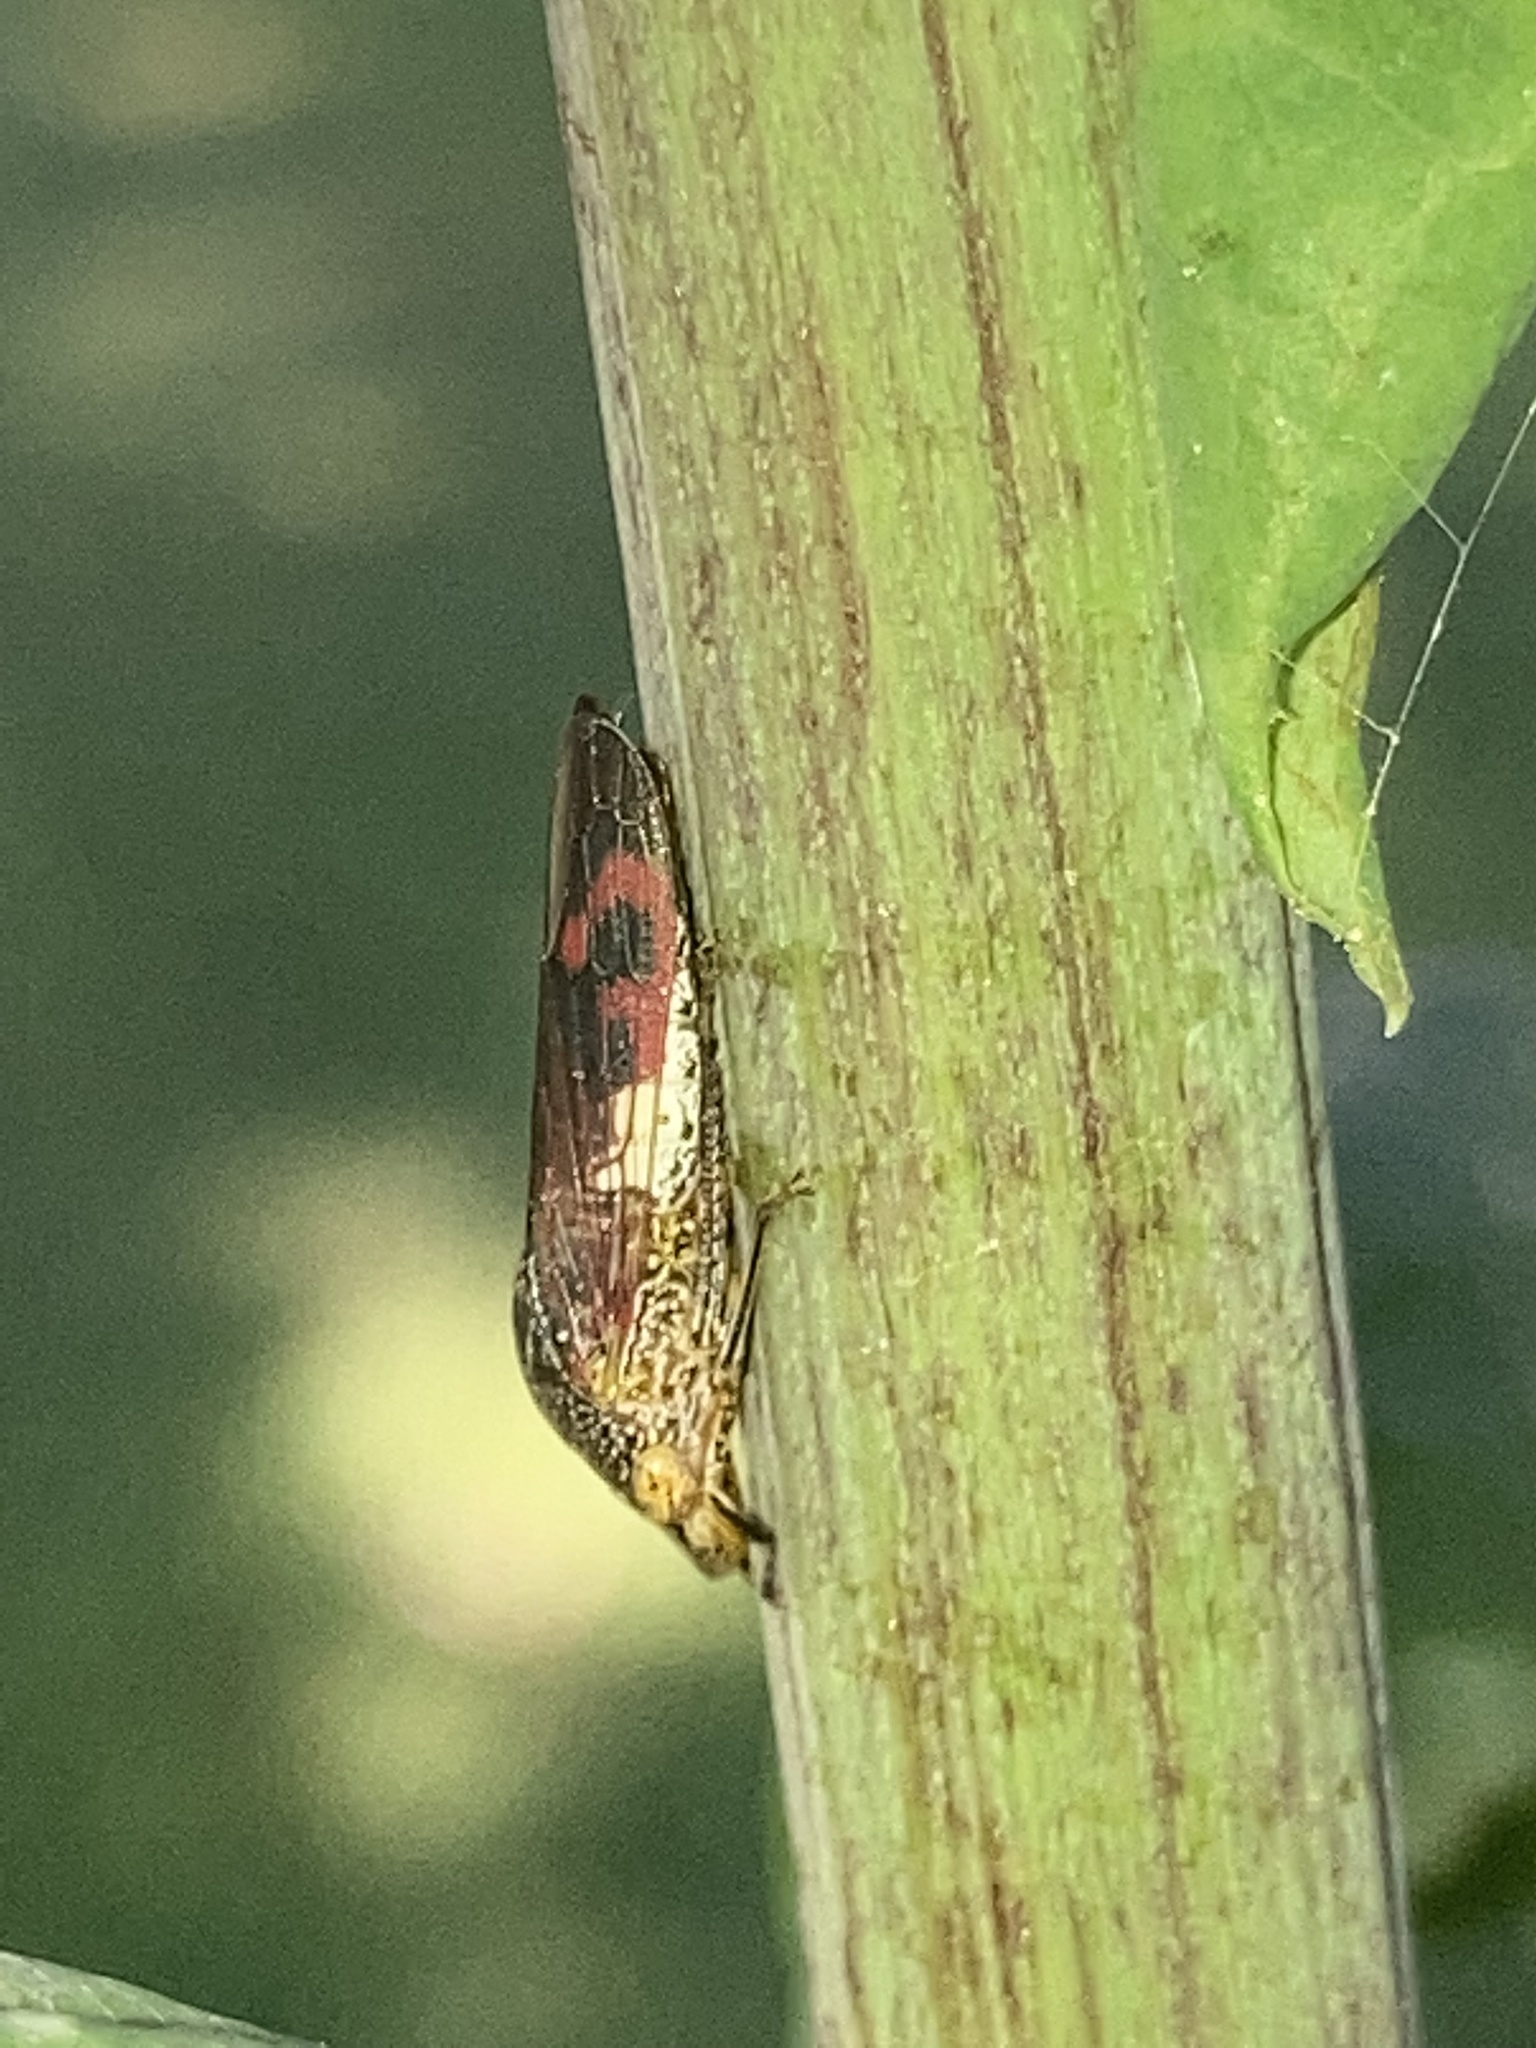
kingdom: Animalia
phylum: Arthropoda
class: Insecta
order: Hemiptera
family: Cicadellidae
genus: Homalodisca
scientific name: Homalodisca vitripennis
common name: Glassy-winged sharpshooter
